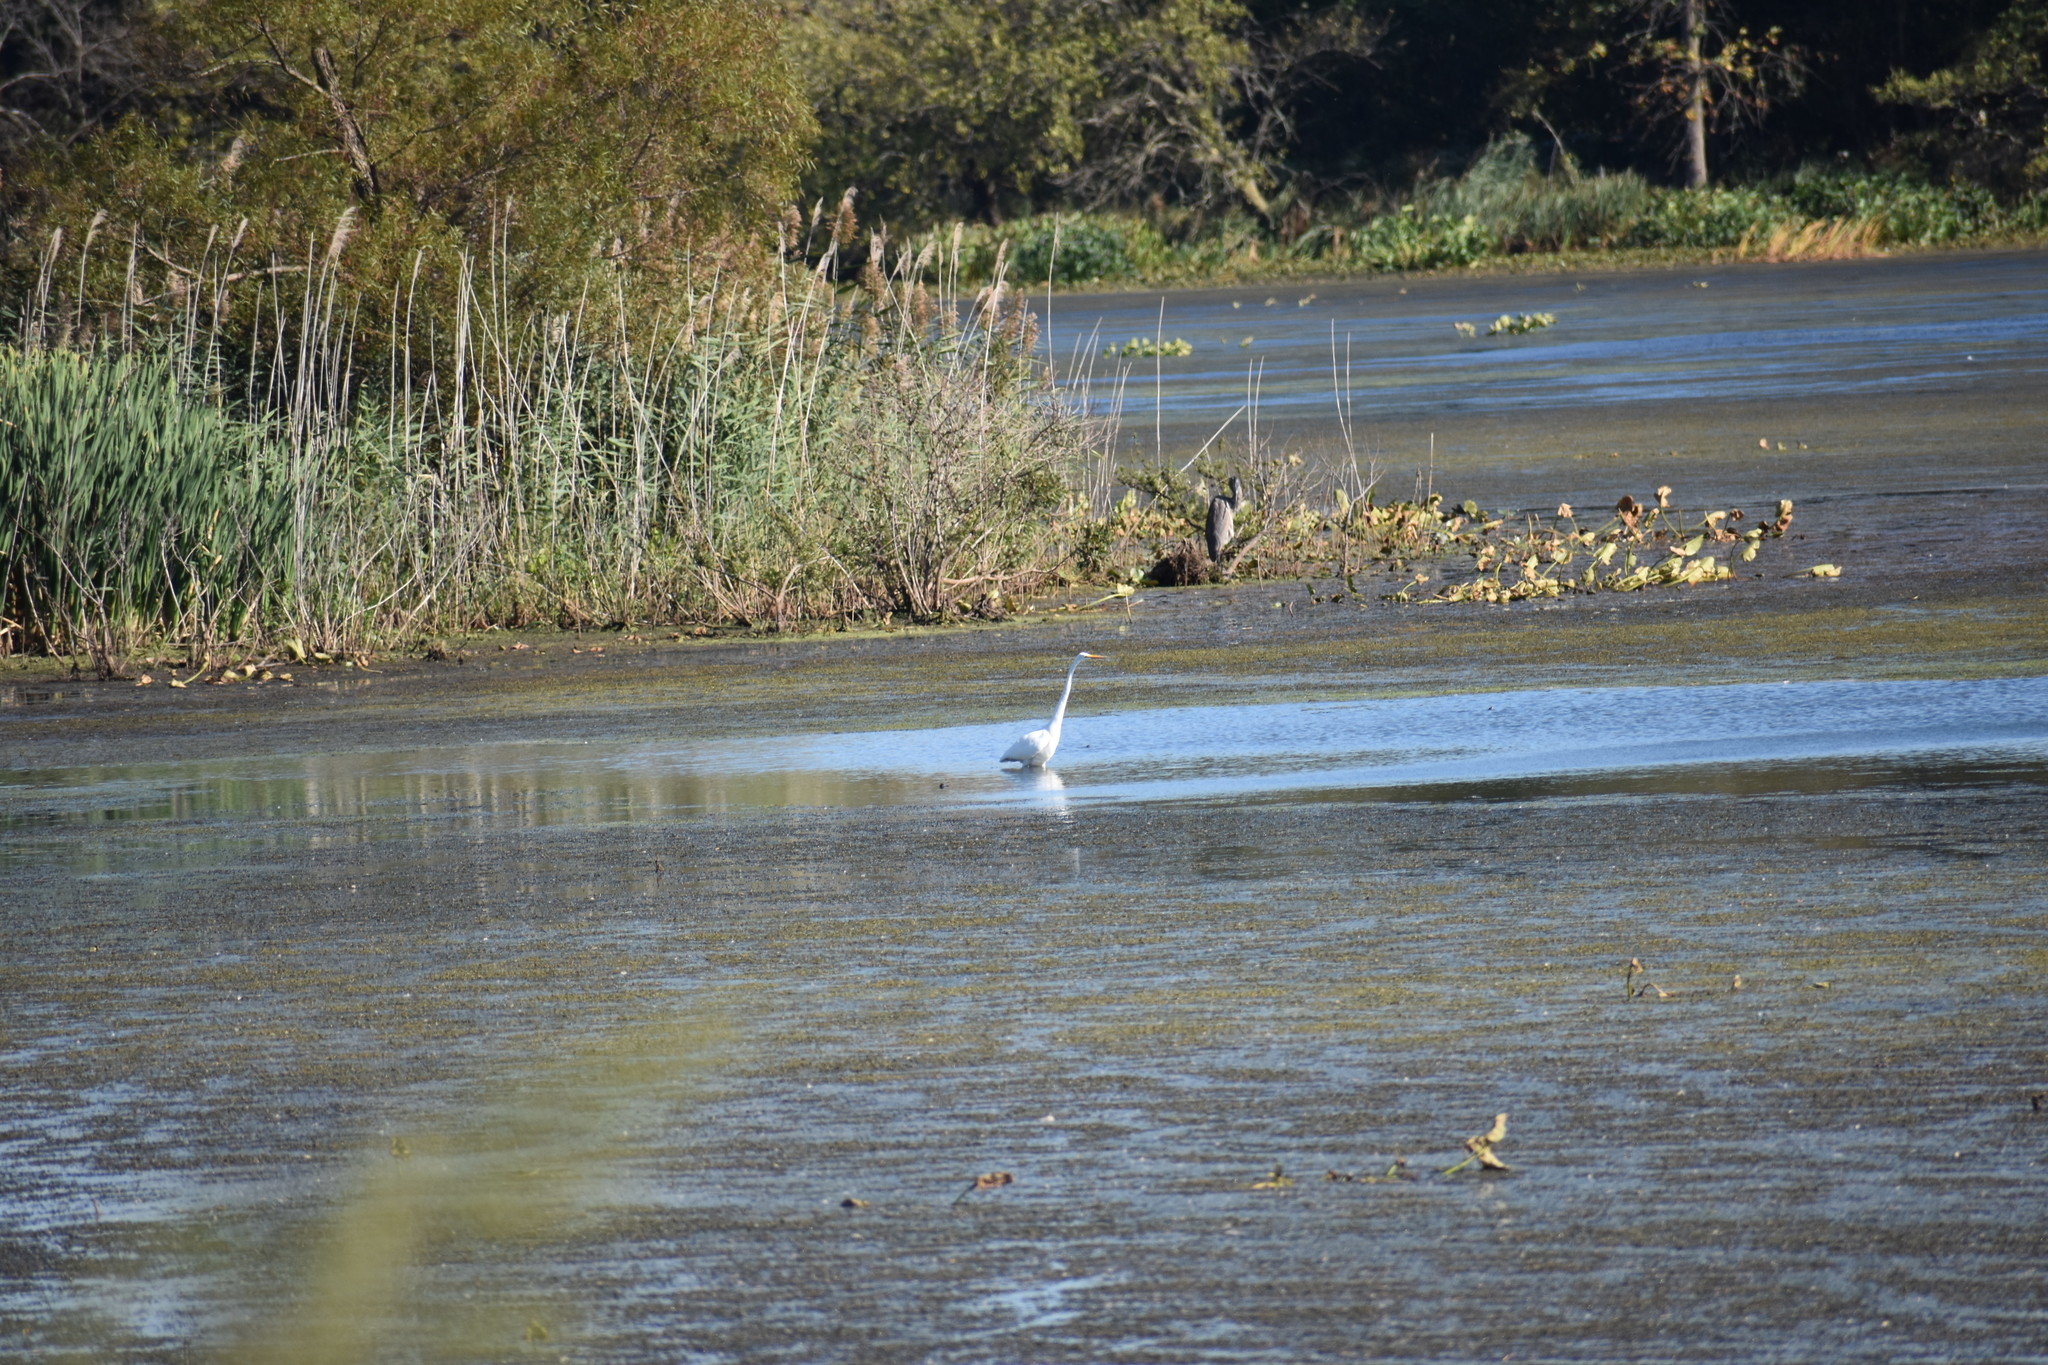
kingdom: Animalia
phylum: Chordata
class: Aves
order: Pelecaniformes
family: Ardeidae
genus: Ardea
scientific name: Ardea herodias
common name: Great blue heron
